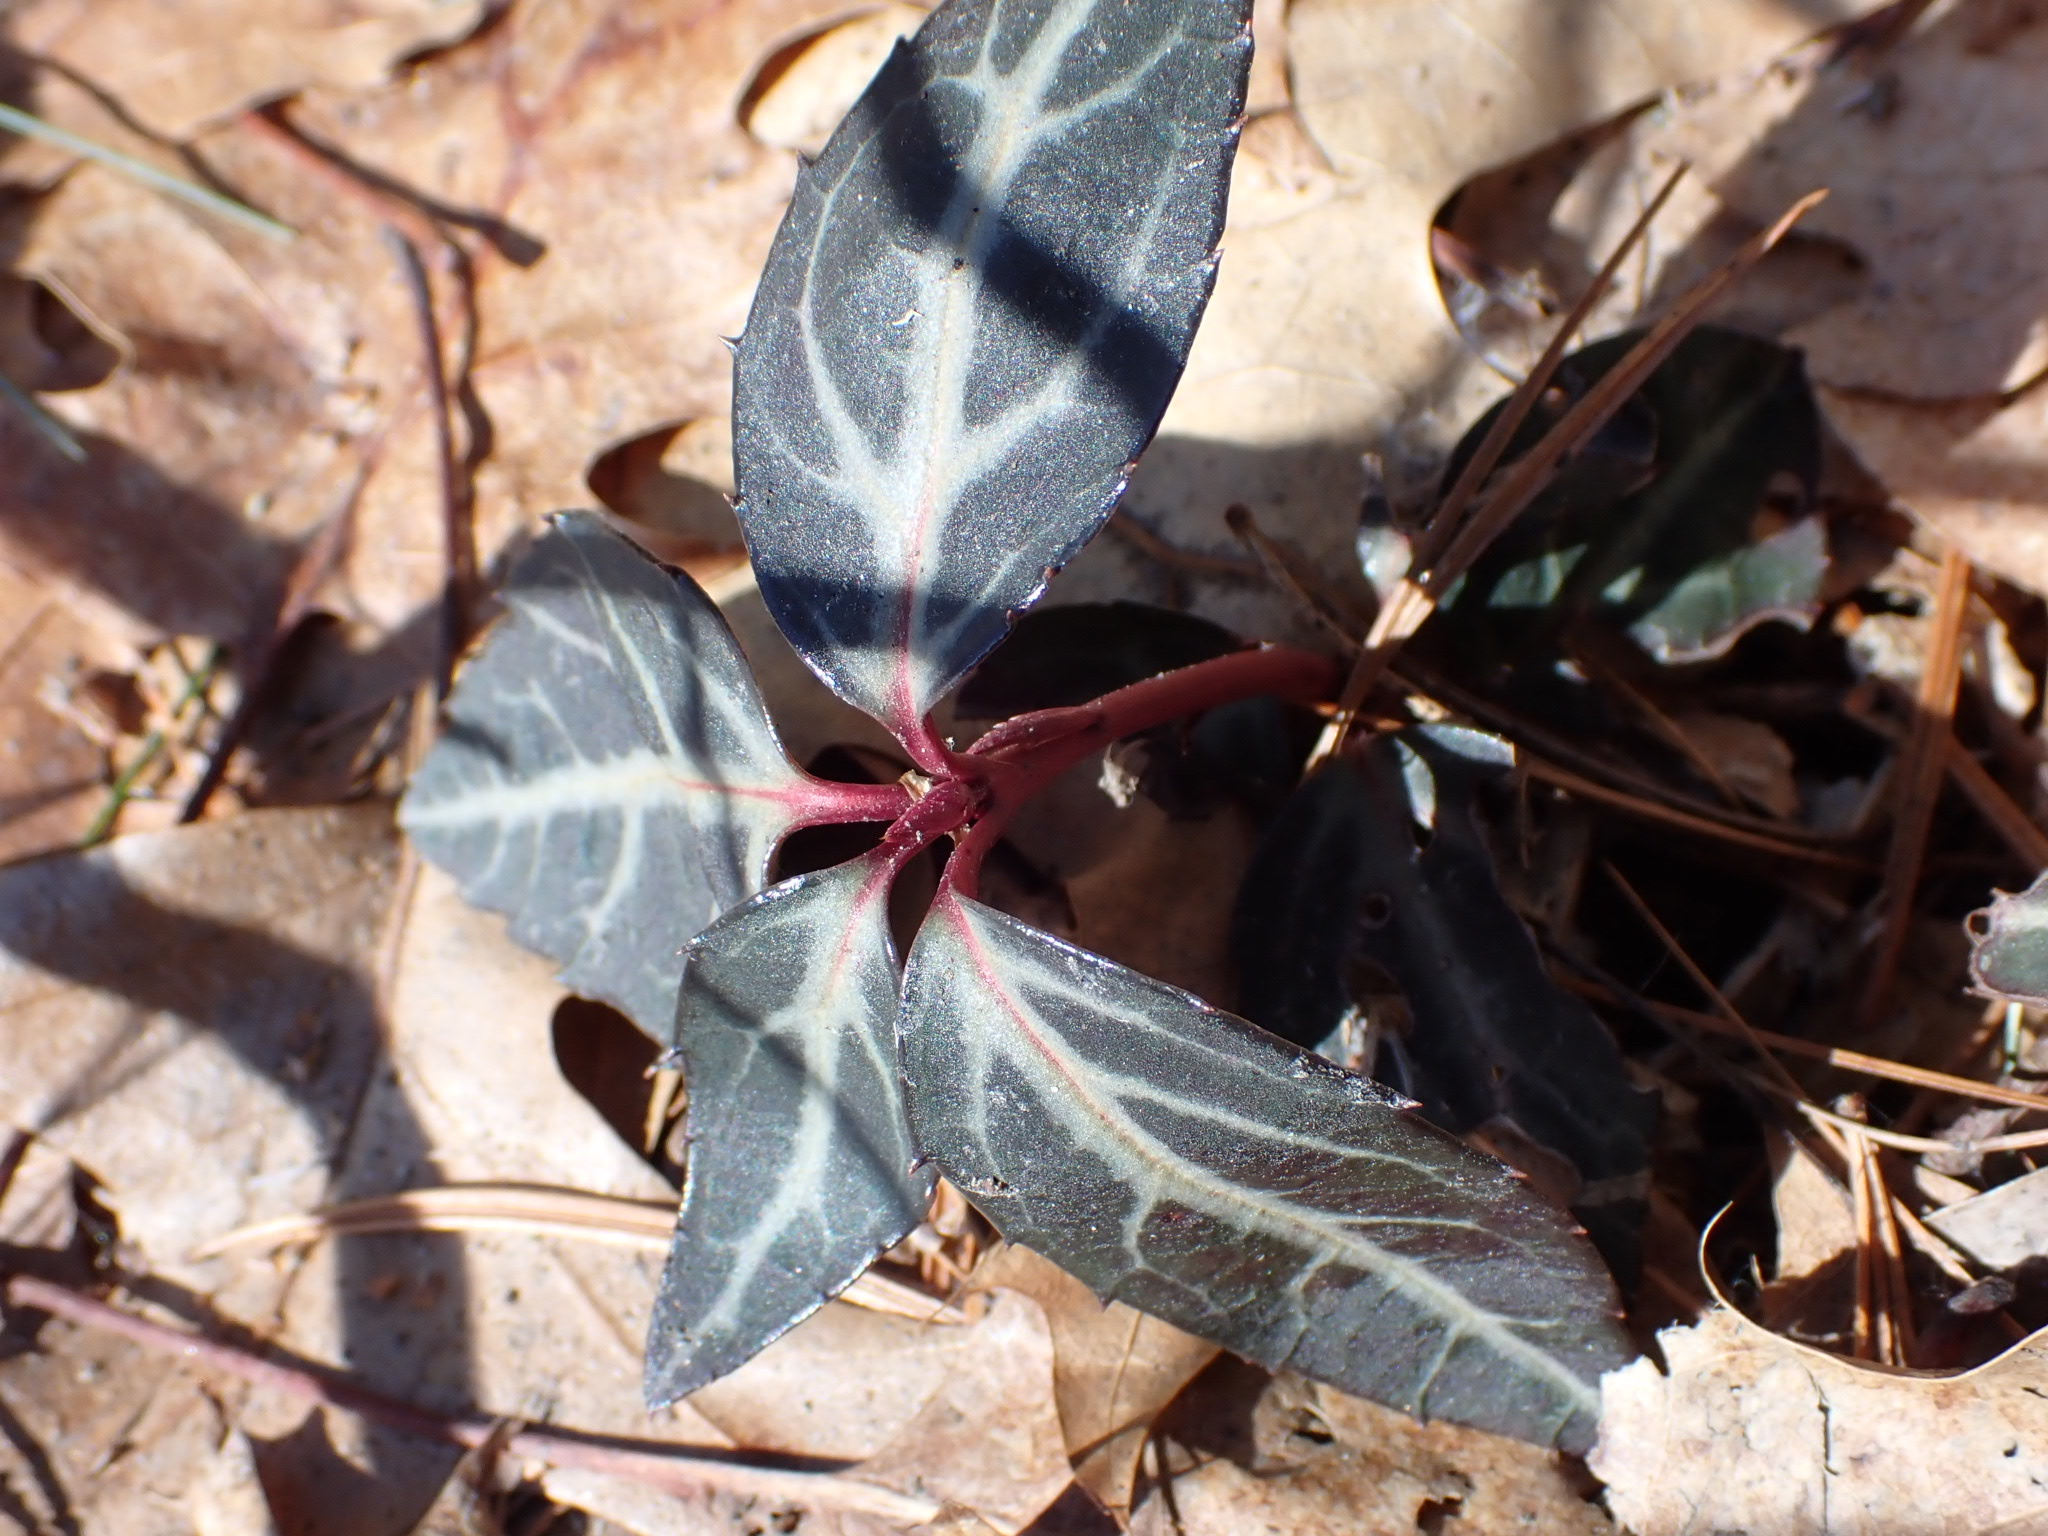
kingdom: Plantae
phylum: Tracheophyta
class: Magnoliopsida
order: Ericales
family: Ericaceae
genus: Chimaphila
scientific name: Chimaphila maculata
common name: Spotted pipsissewa
